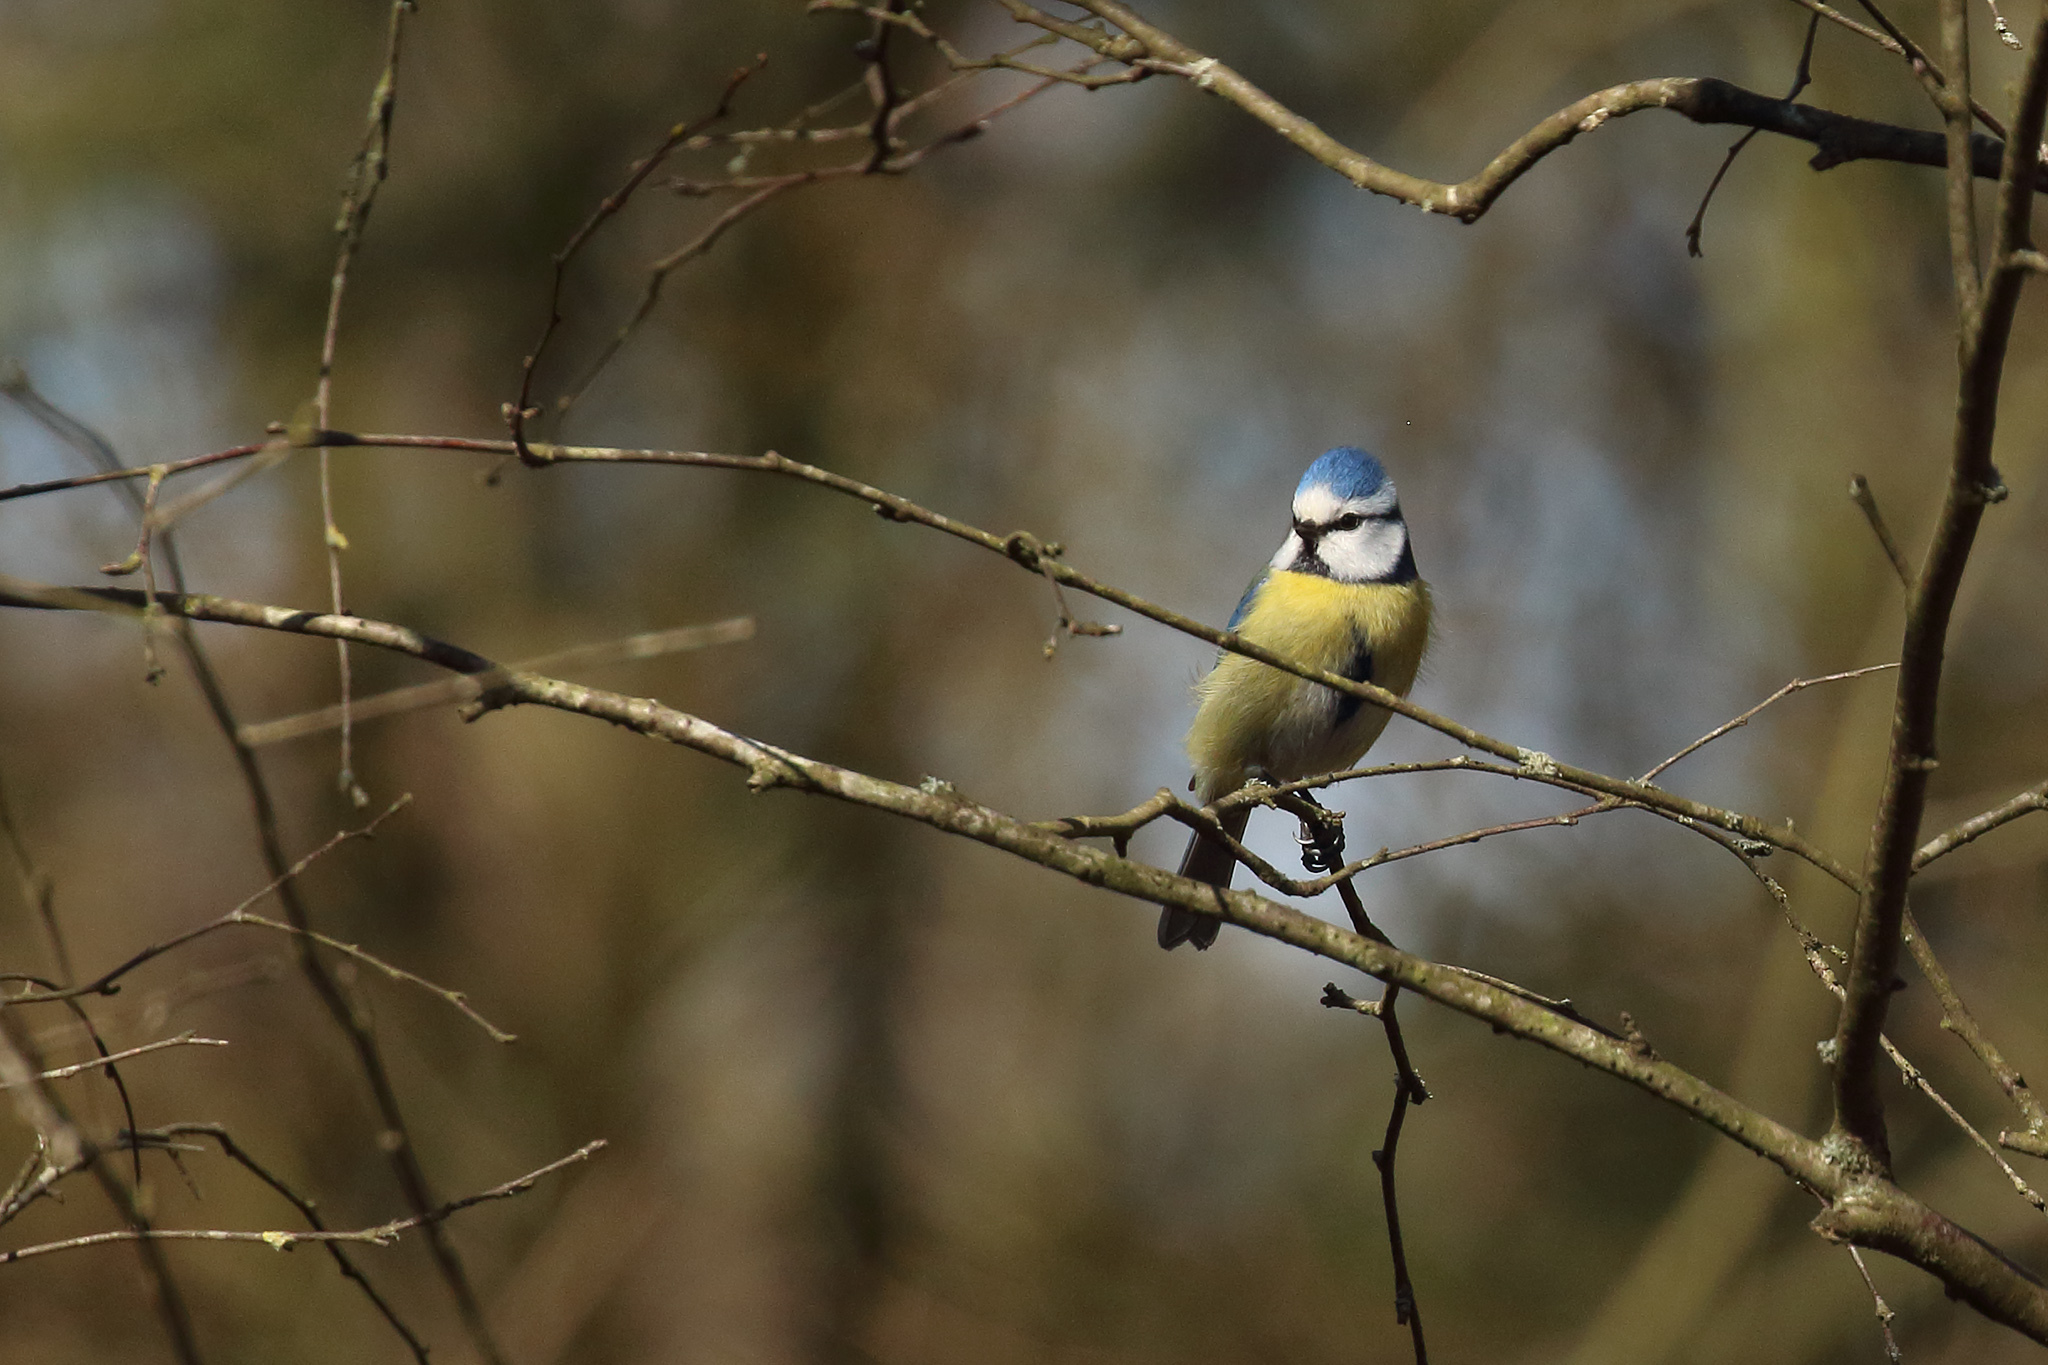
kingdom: Animalia
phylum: Chordata
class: Aves
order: Passeriformes
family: Paridae
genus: Cyanistes
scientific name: Cyanistes caeruleus
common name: Eurasian blue tit
